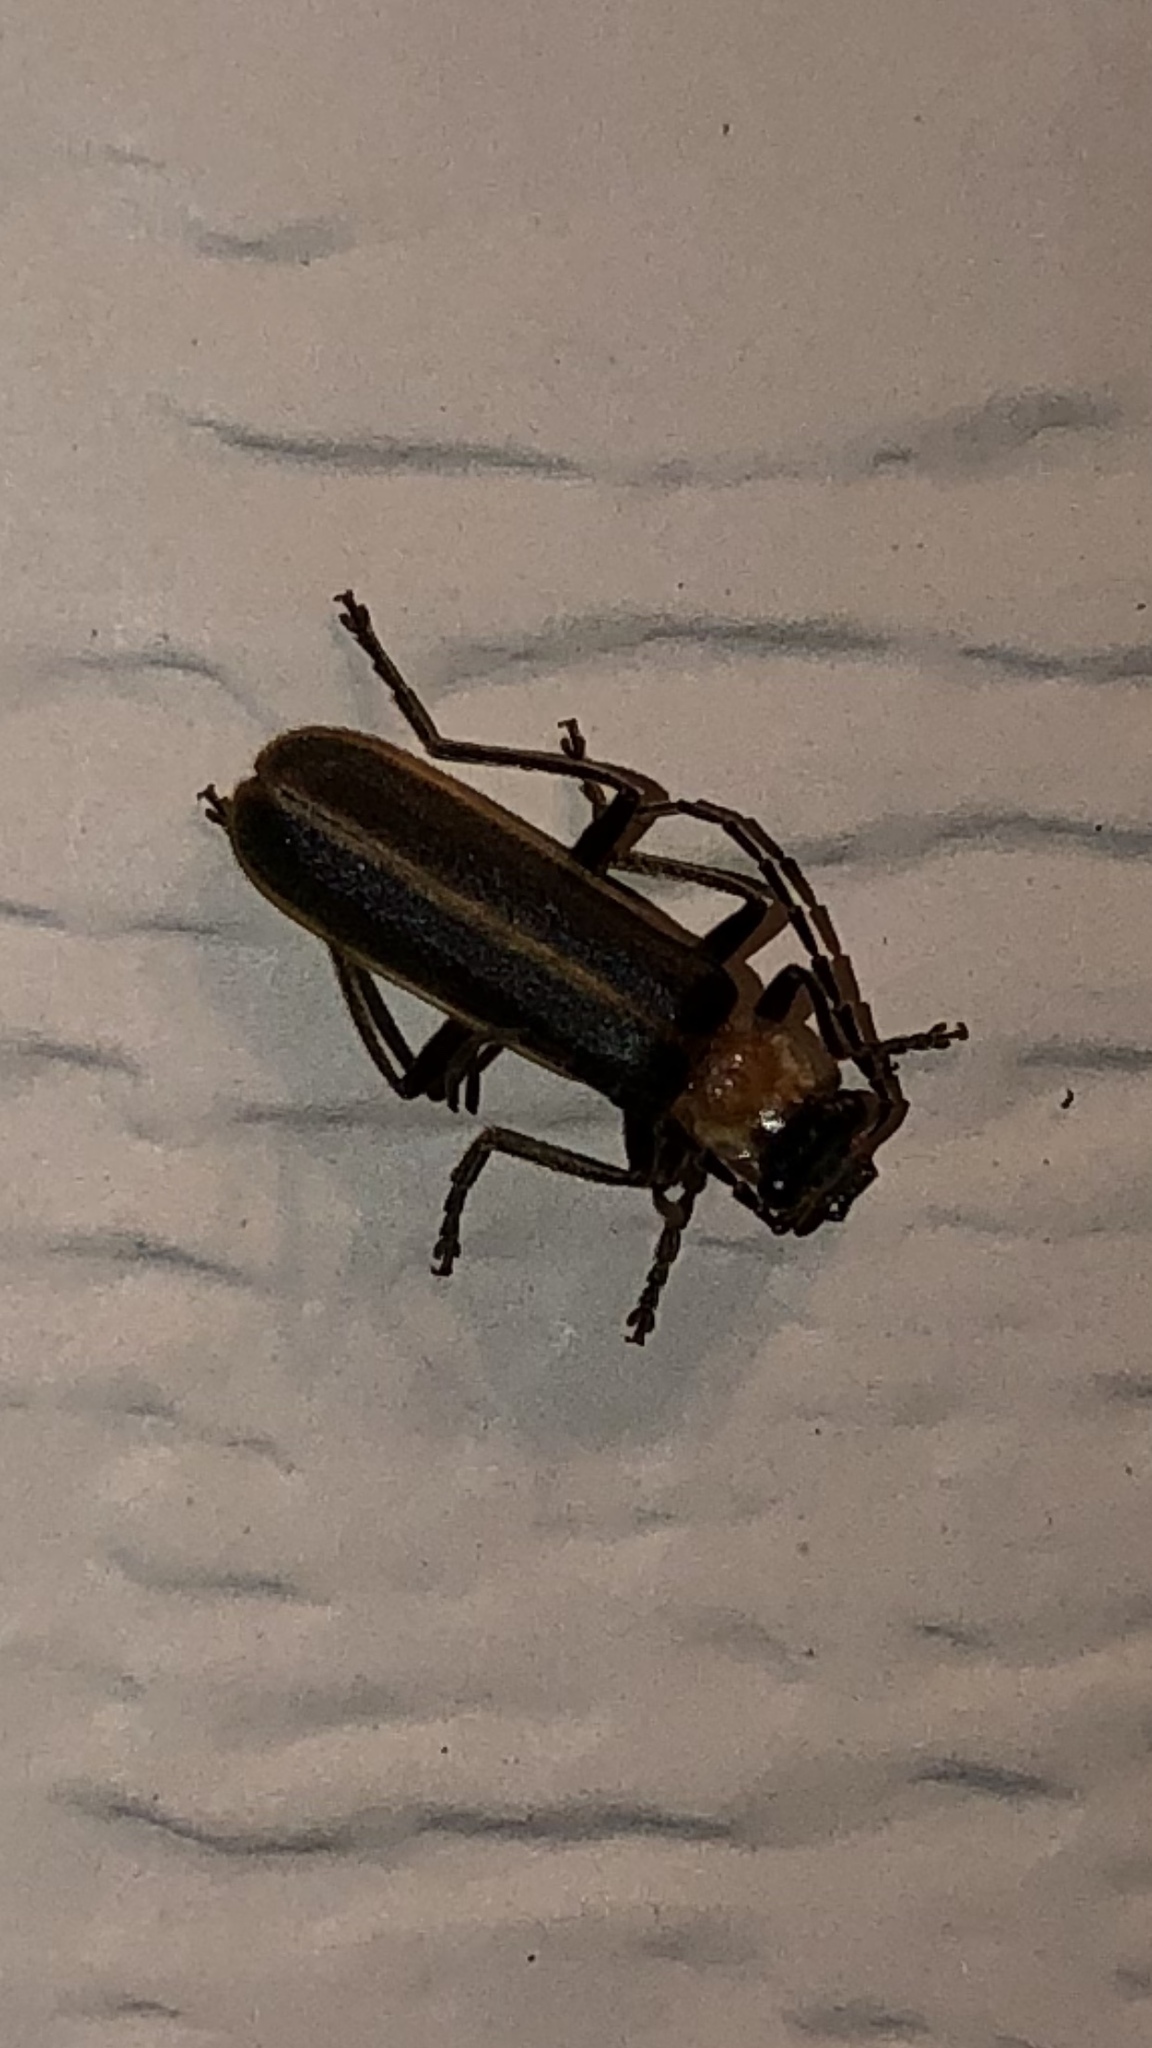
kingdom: Animalia
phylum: Arthropoda
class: Insecta
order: Coleoptera
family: Cantharidae
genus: Podabrus
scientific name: Podabrus flavicollis
